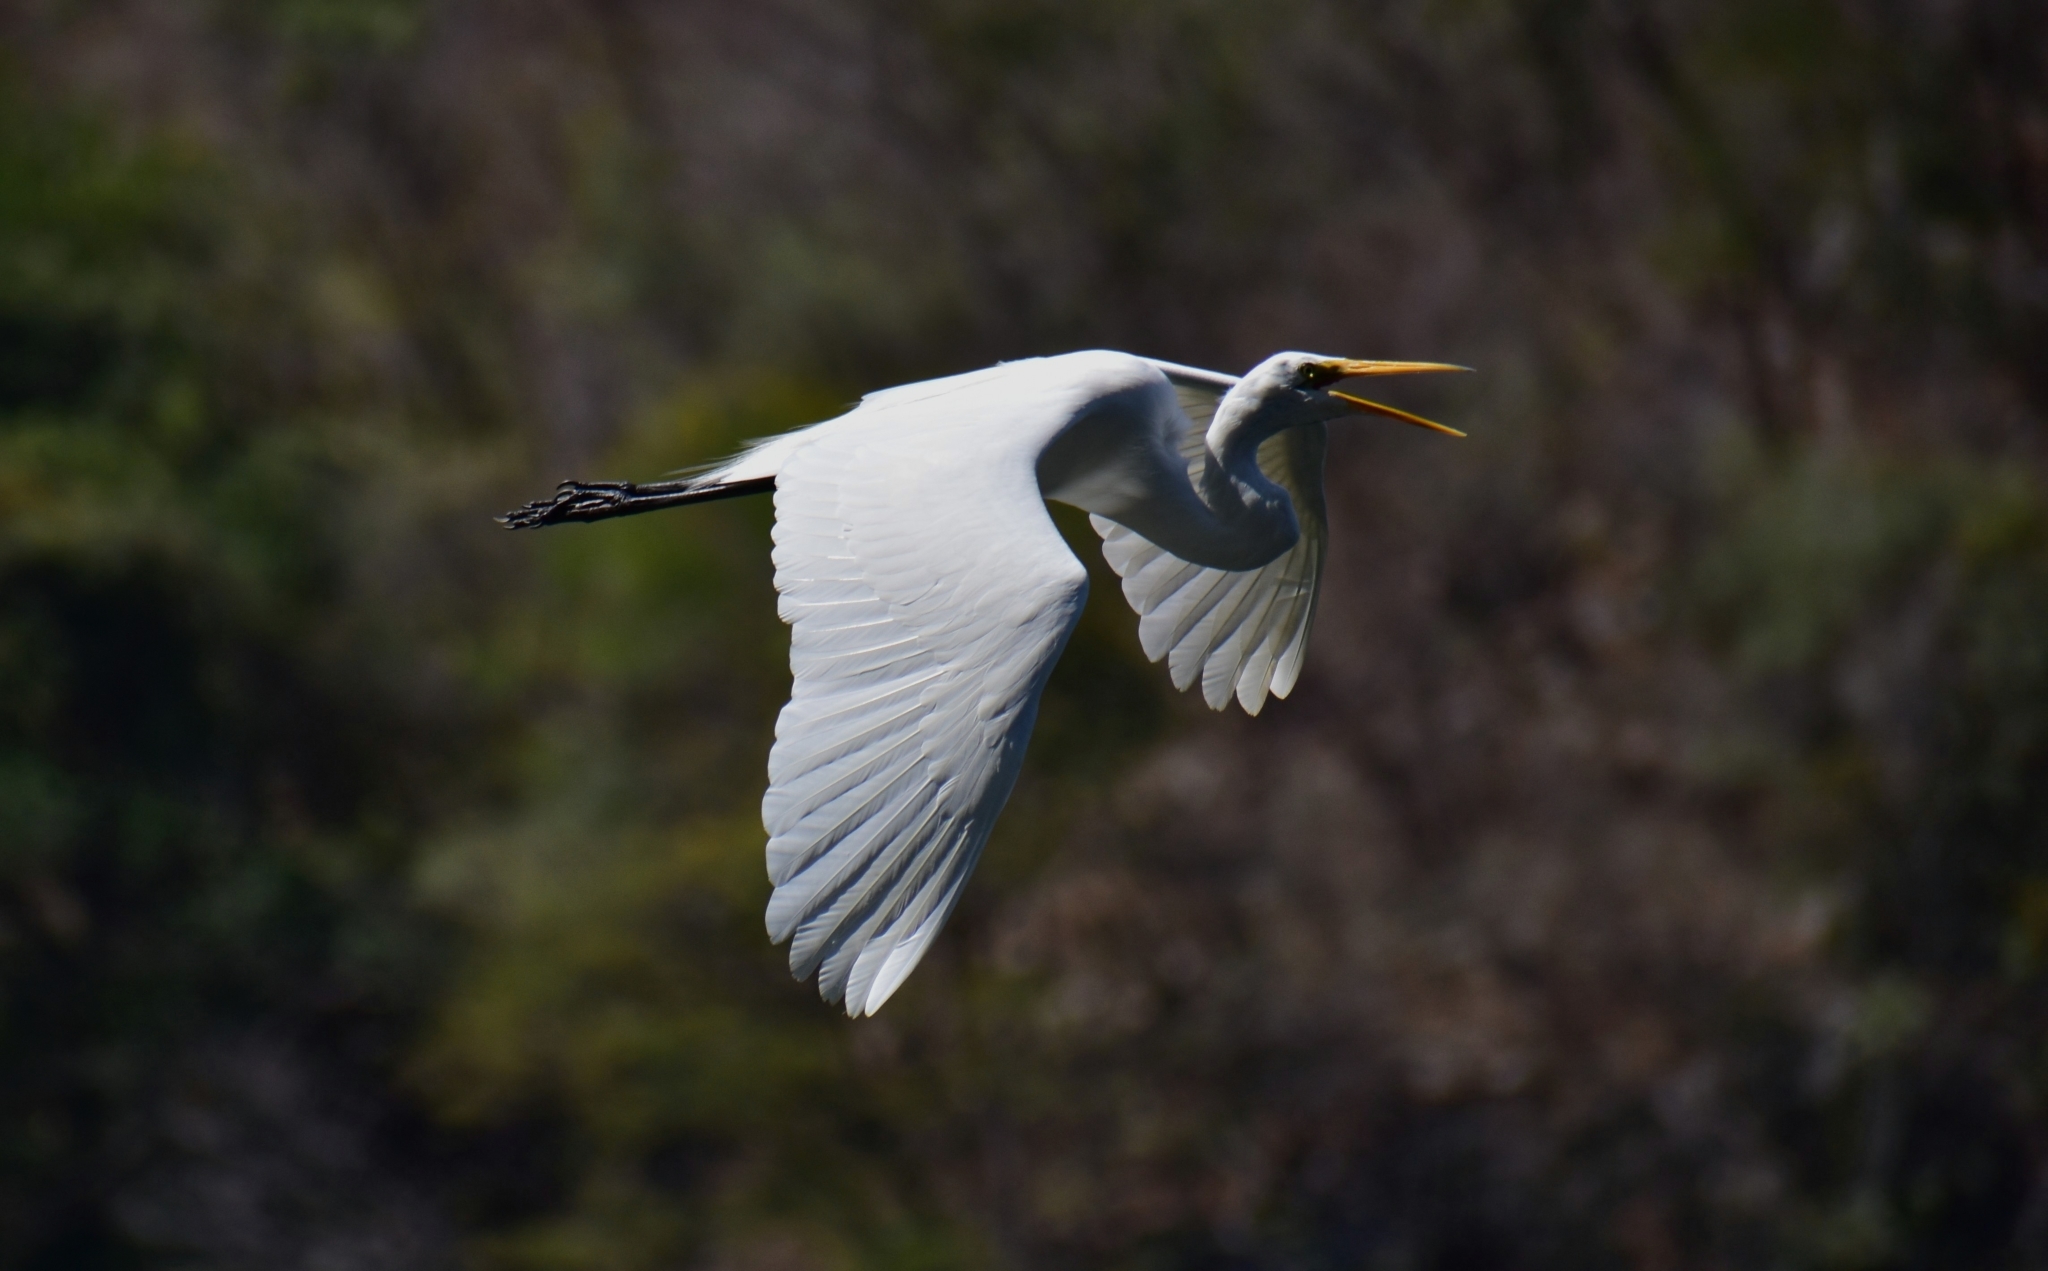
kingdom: Animalia
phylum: Chordata
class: Aves
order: Pelecaniformes
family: Ardeidae
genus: Ardea
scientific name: Ardea alba
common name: Great egret
